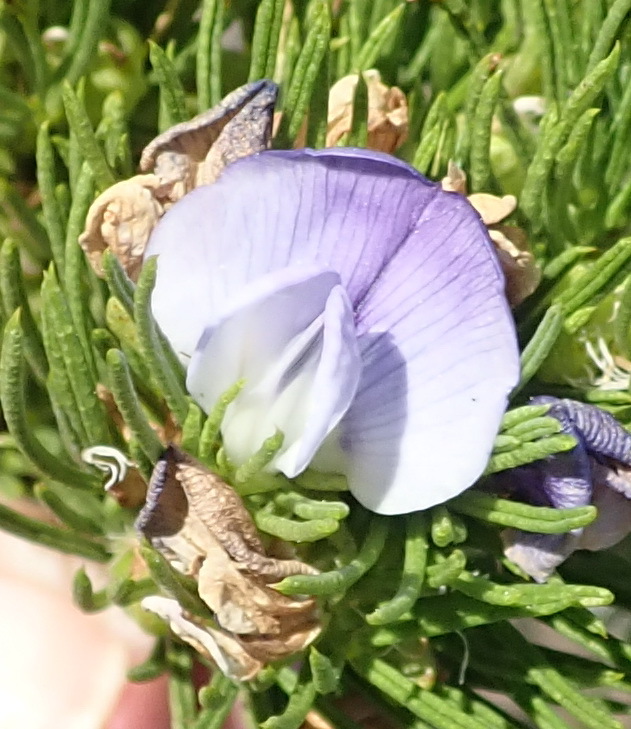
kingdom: Plantae
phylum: Tracheophyta
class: Magnoliopsida
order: Fabales
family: Fabaceae
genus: Psoralea
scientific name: Psoralea affinis
